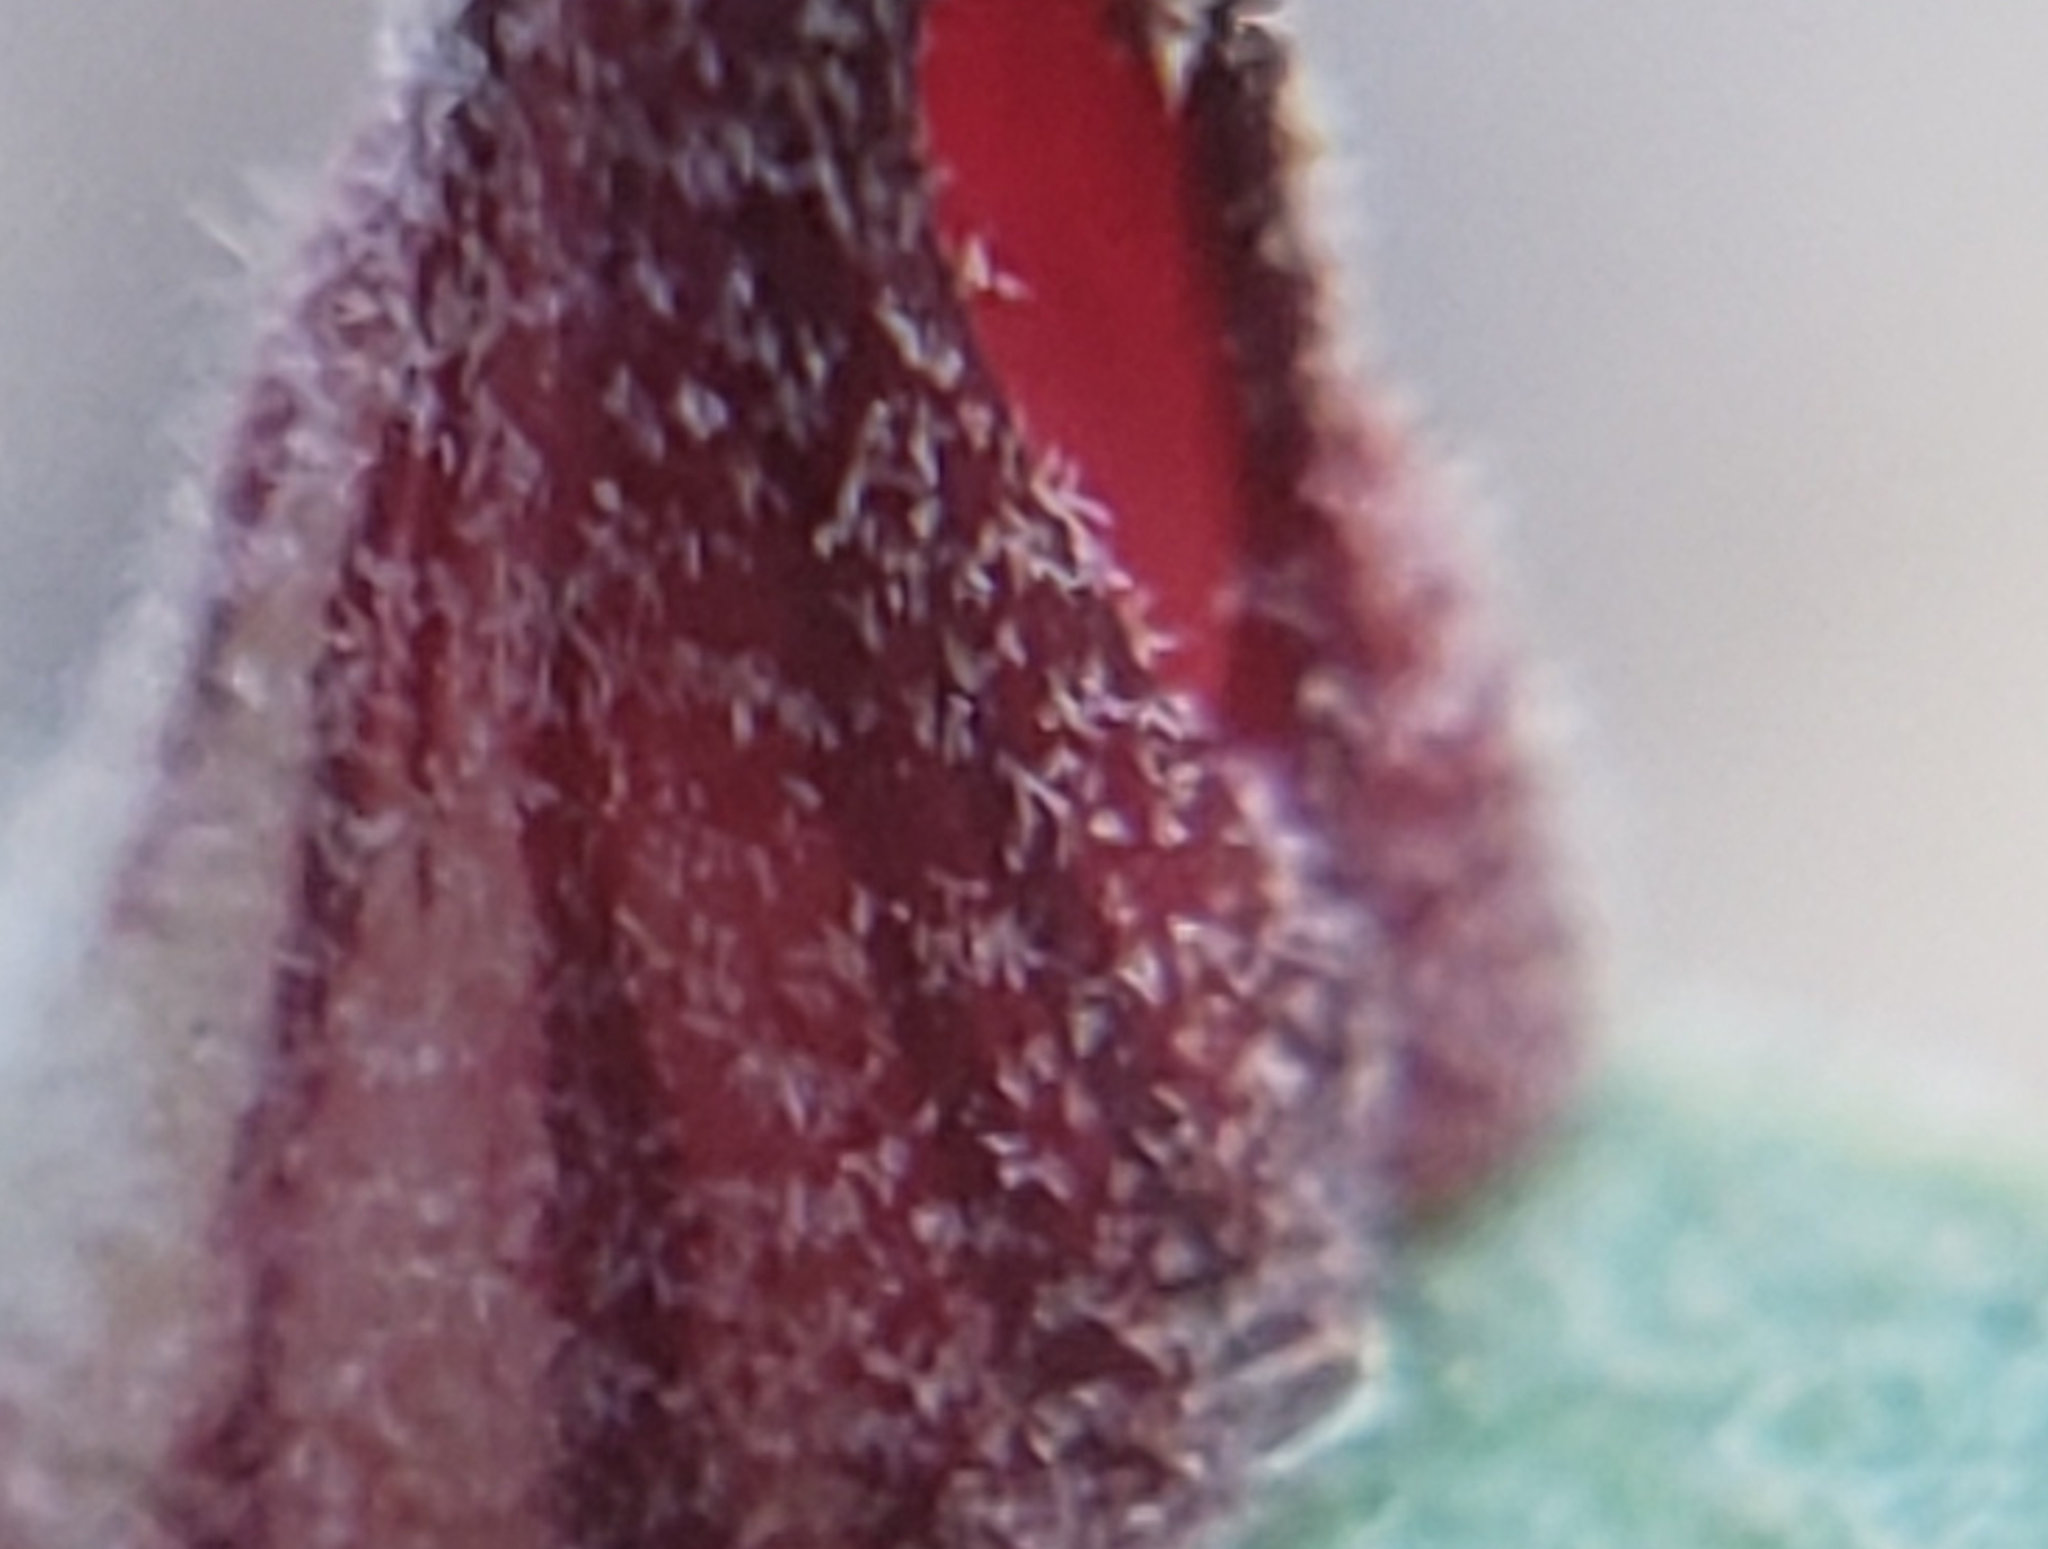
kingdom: Animalia
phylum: Arthropoda
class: Insecta
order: Hymenoptera
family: Cynipidae
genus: Andricus
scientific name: Andricus
